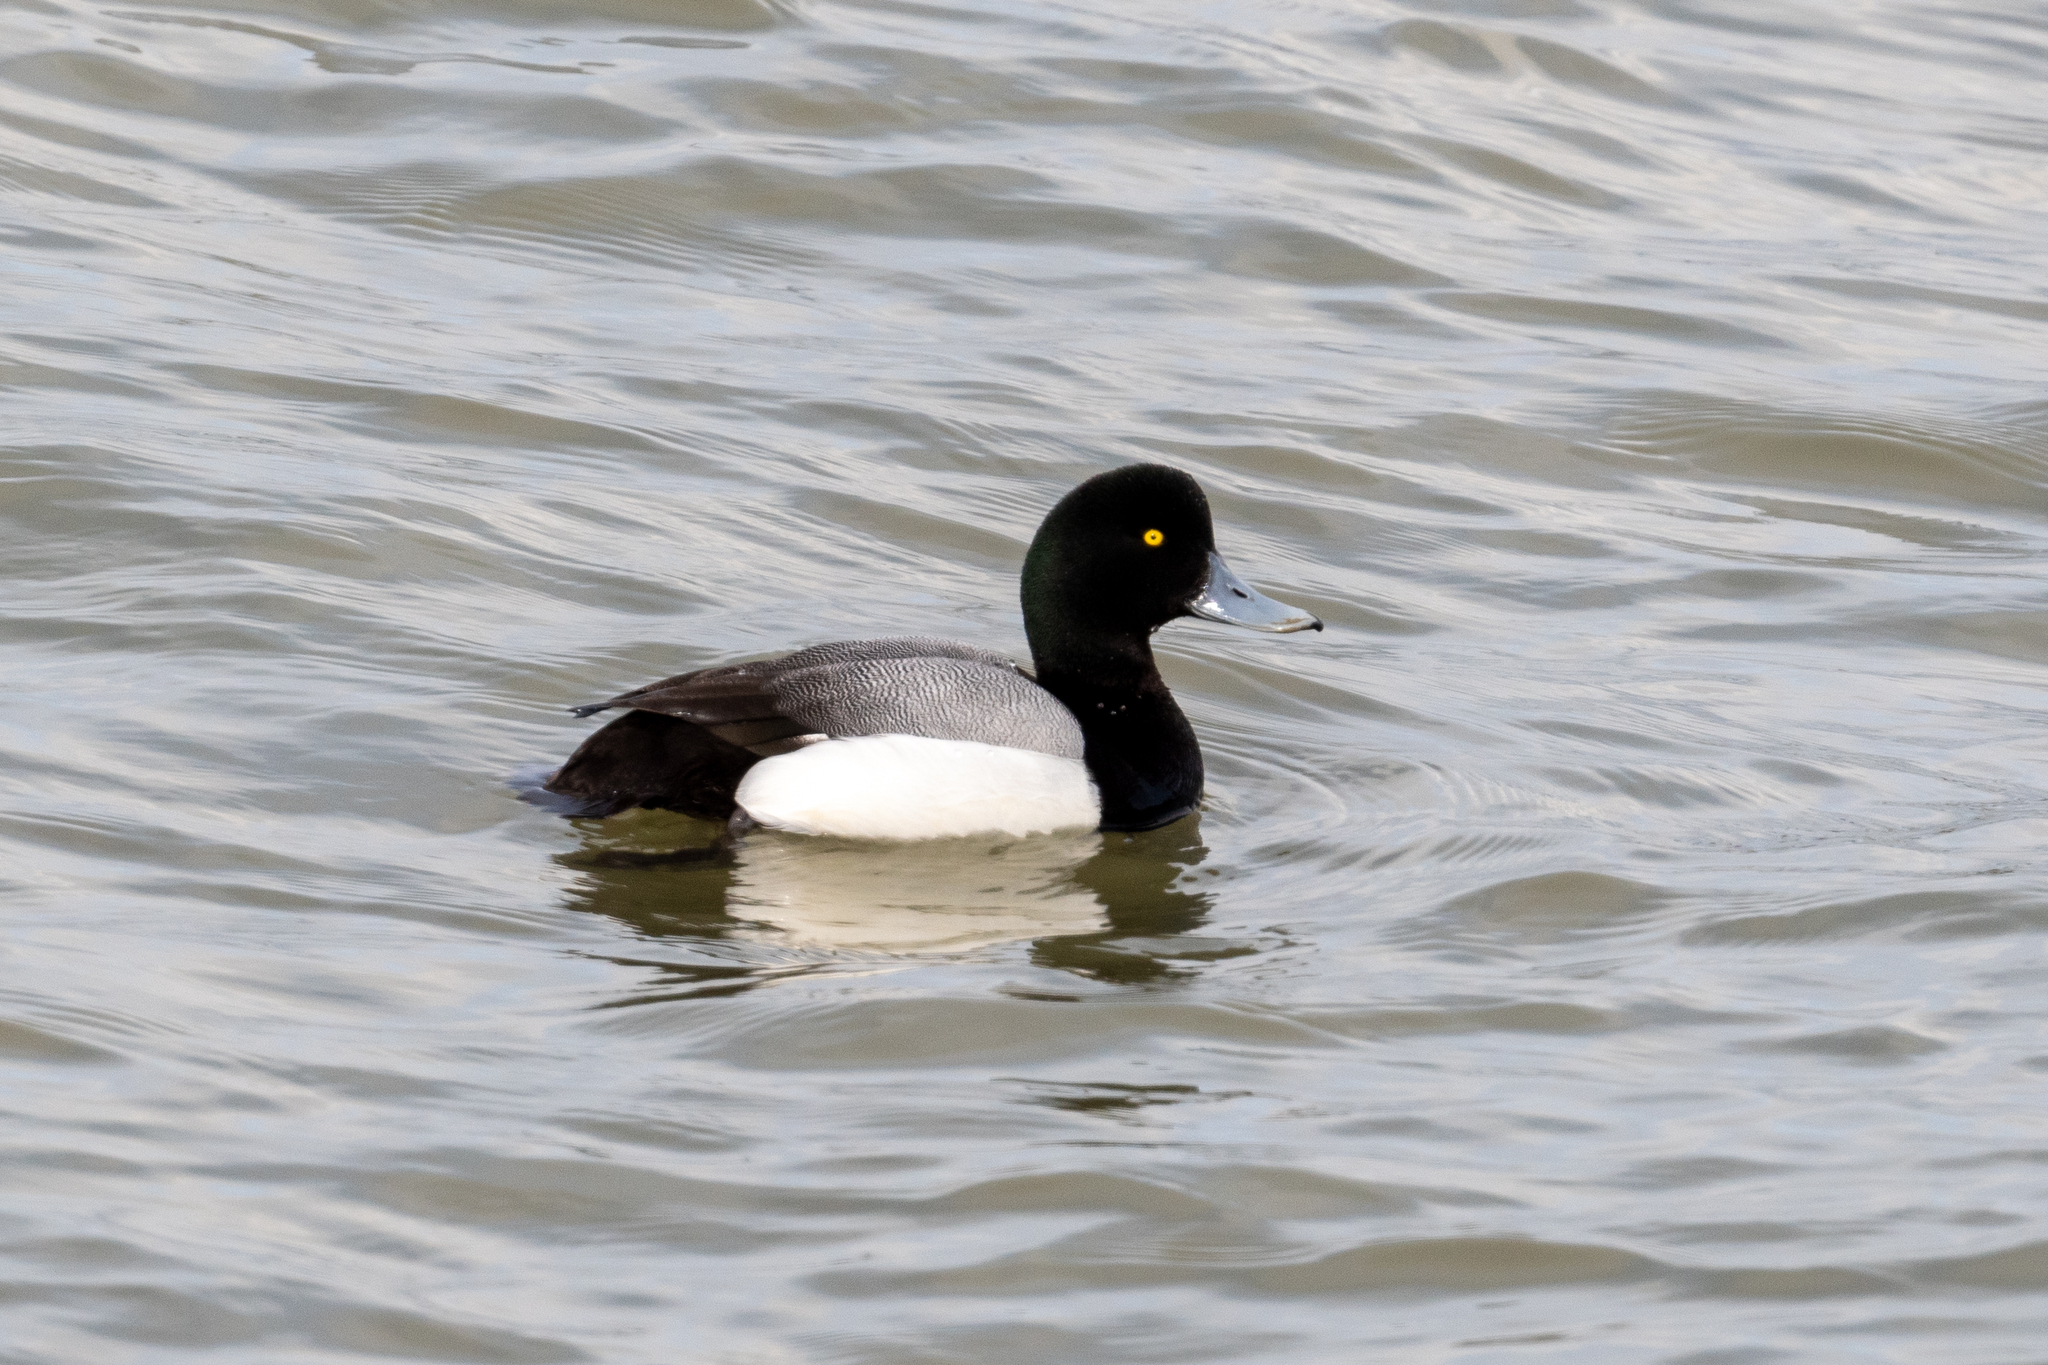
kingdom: Animalia
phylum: Chordata
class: Aves
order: Anseriformes
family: Anatidae
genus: Aythya
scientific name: Aythya marila
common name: Greater scaup
